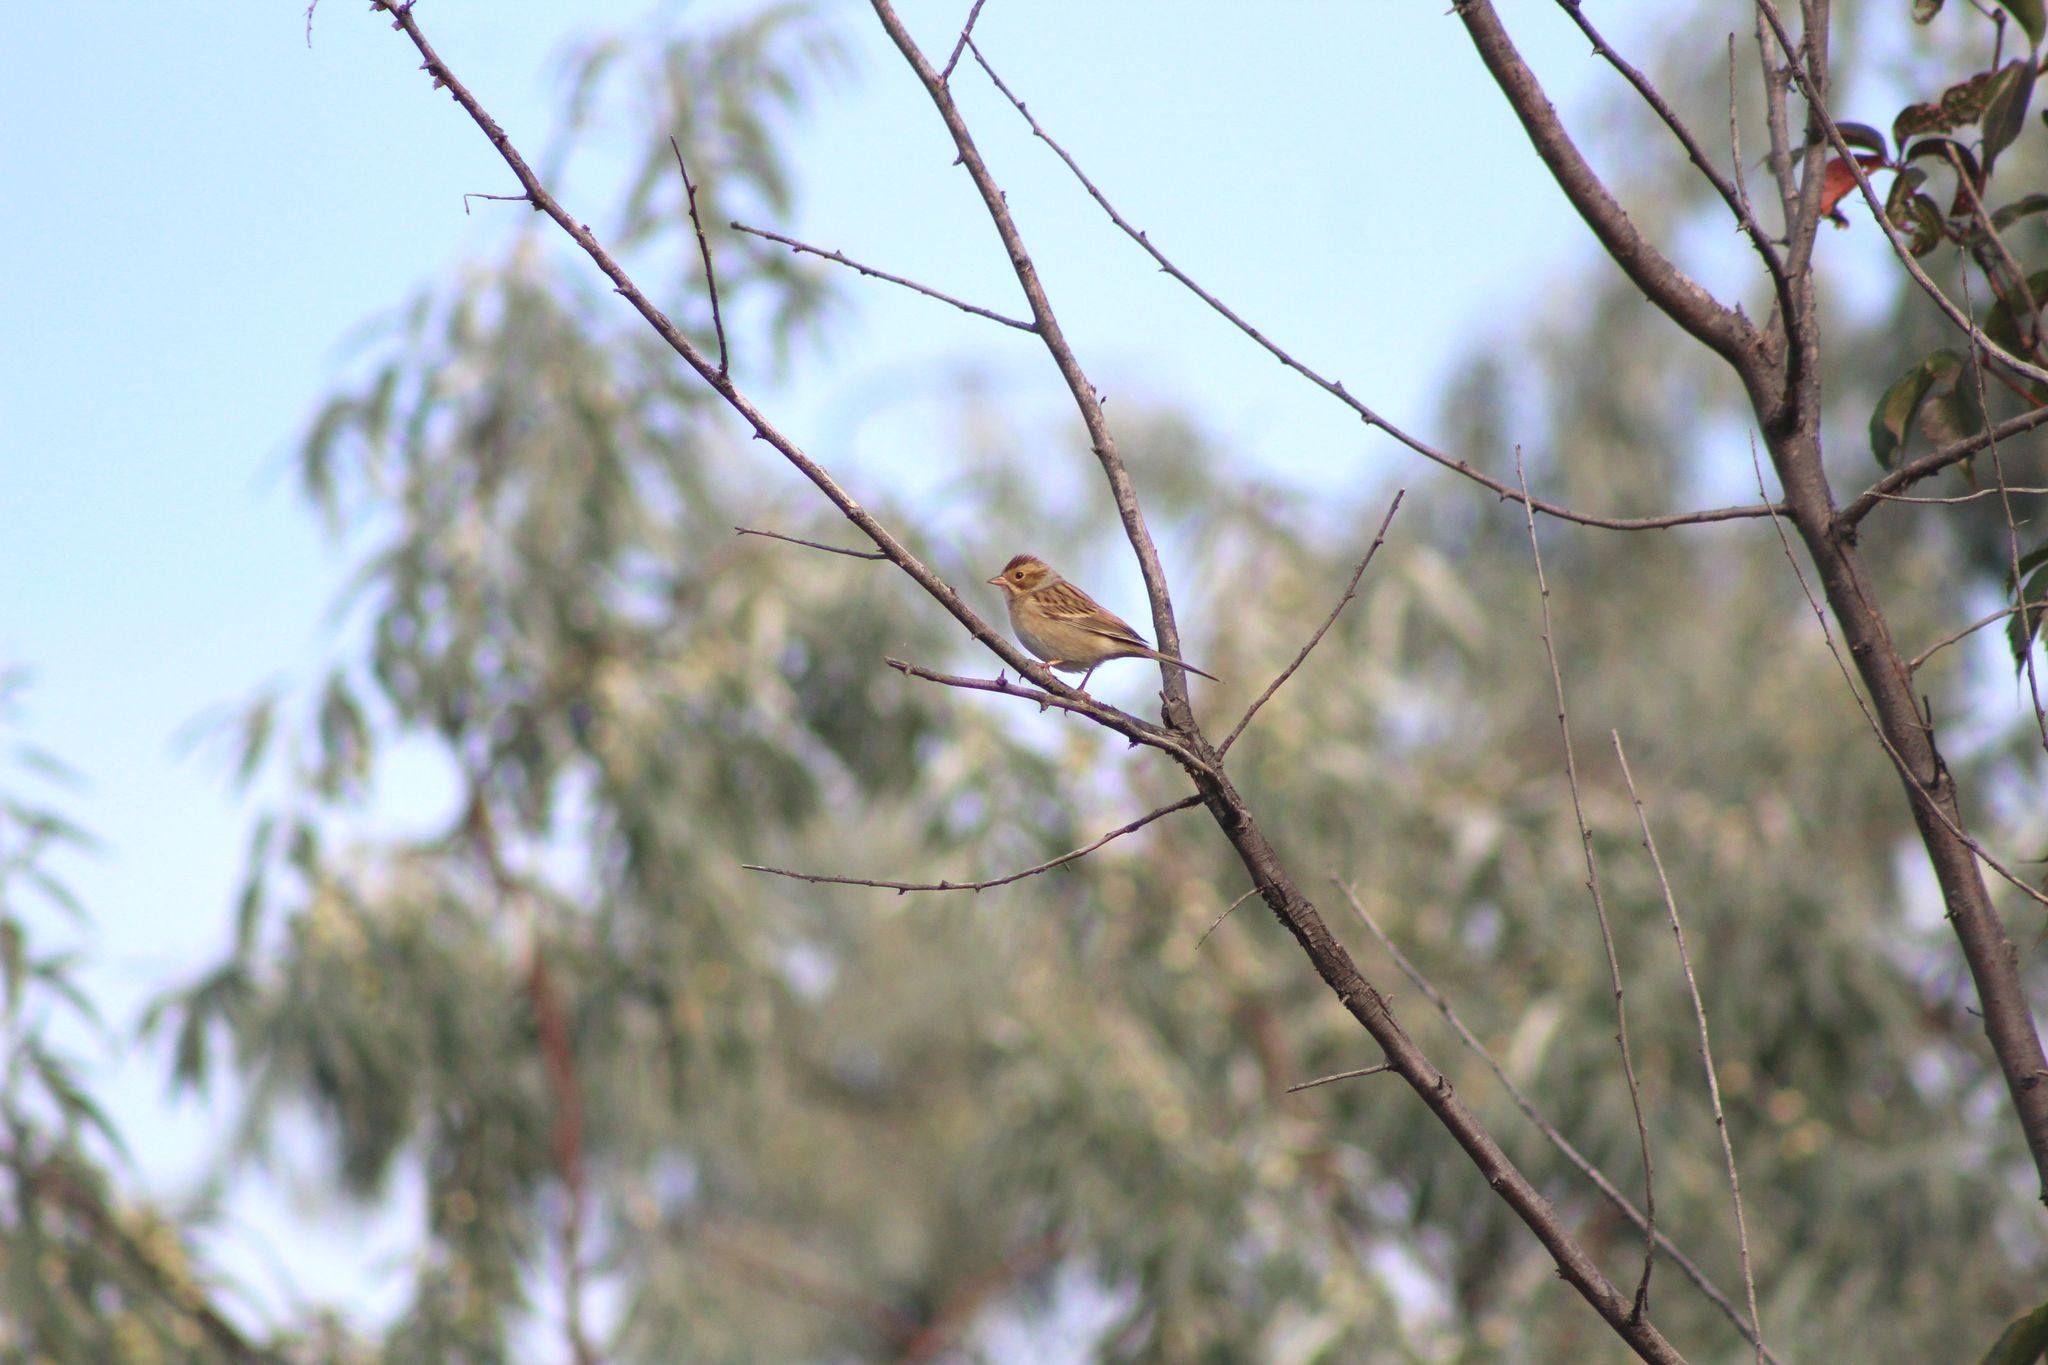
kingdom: Animalia
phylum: Chordata
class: Aves
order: Passeriformes
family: Passerellidae
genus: Spizella
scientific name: Spizella pallida
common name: Clay-colored sparrow
